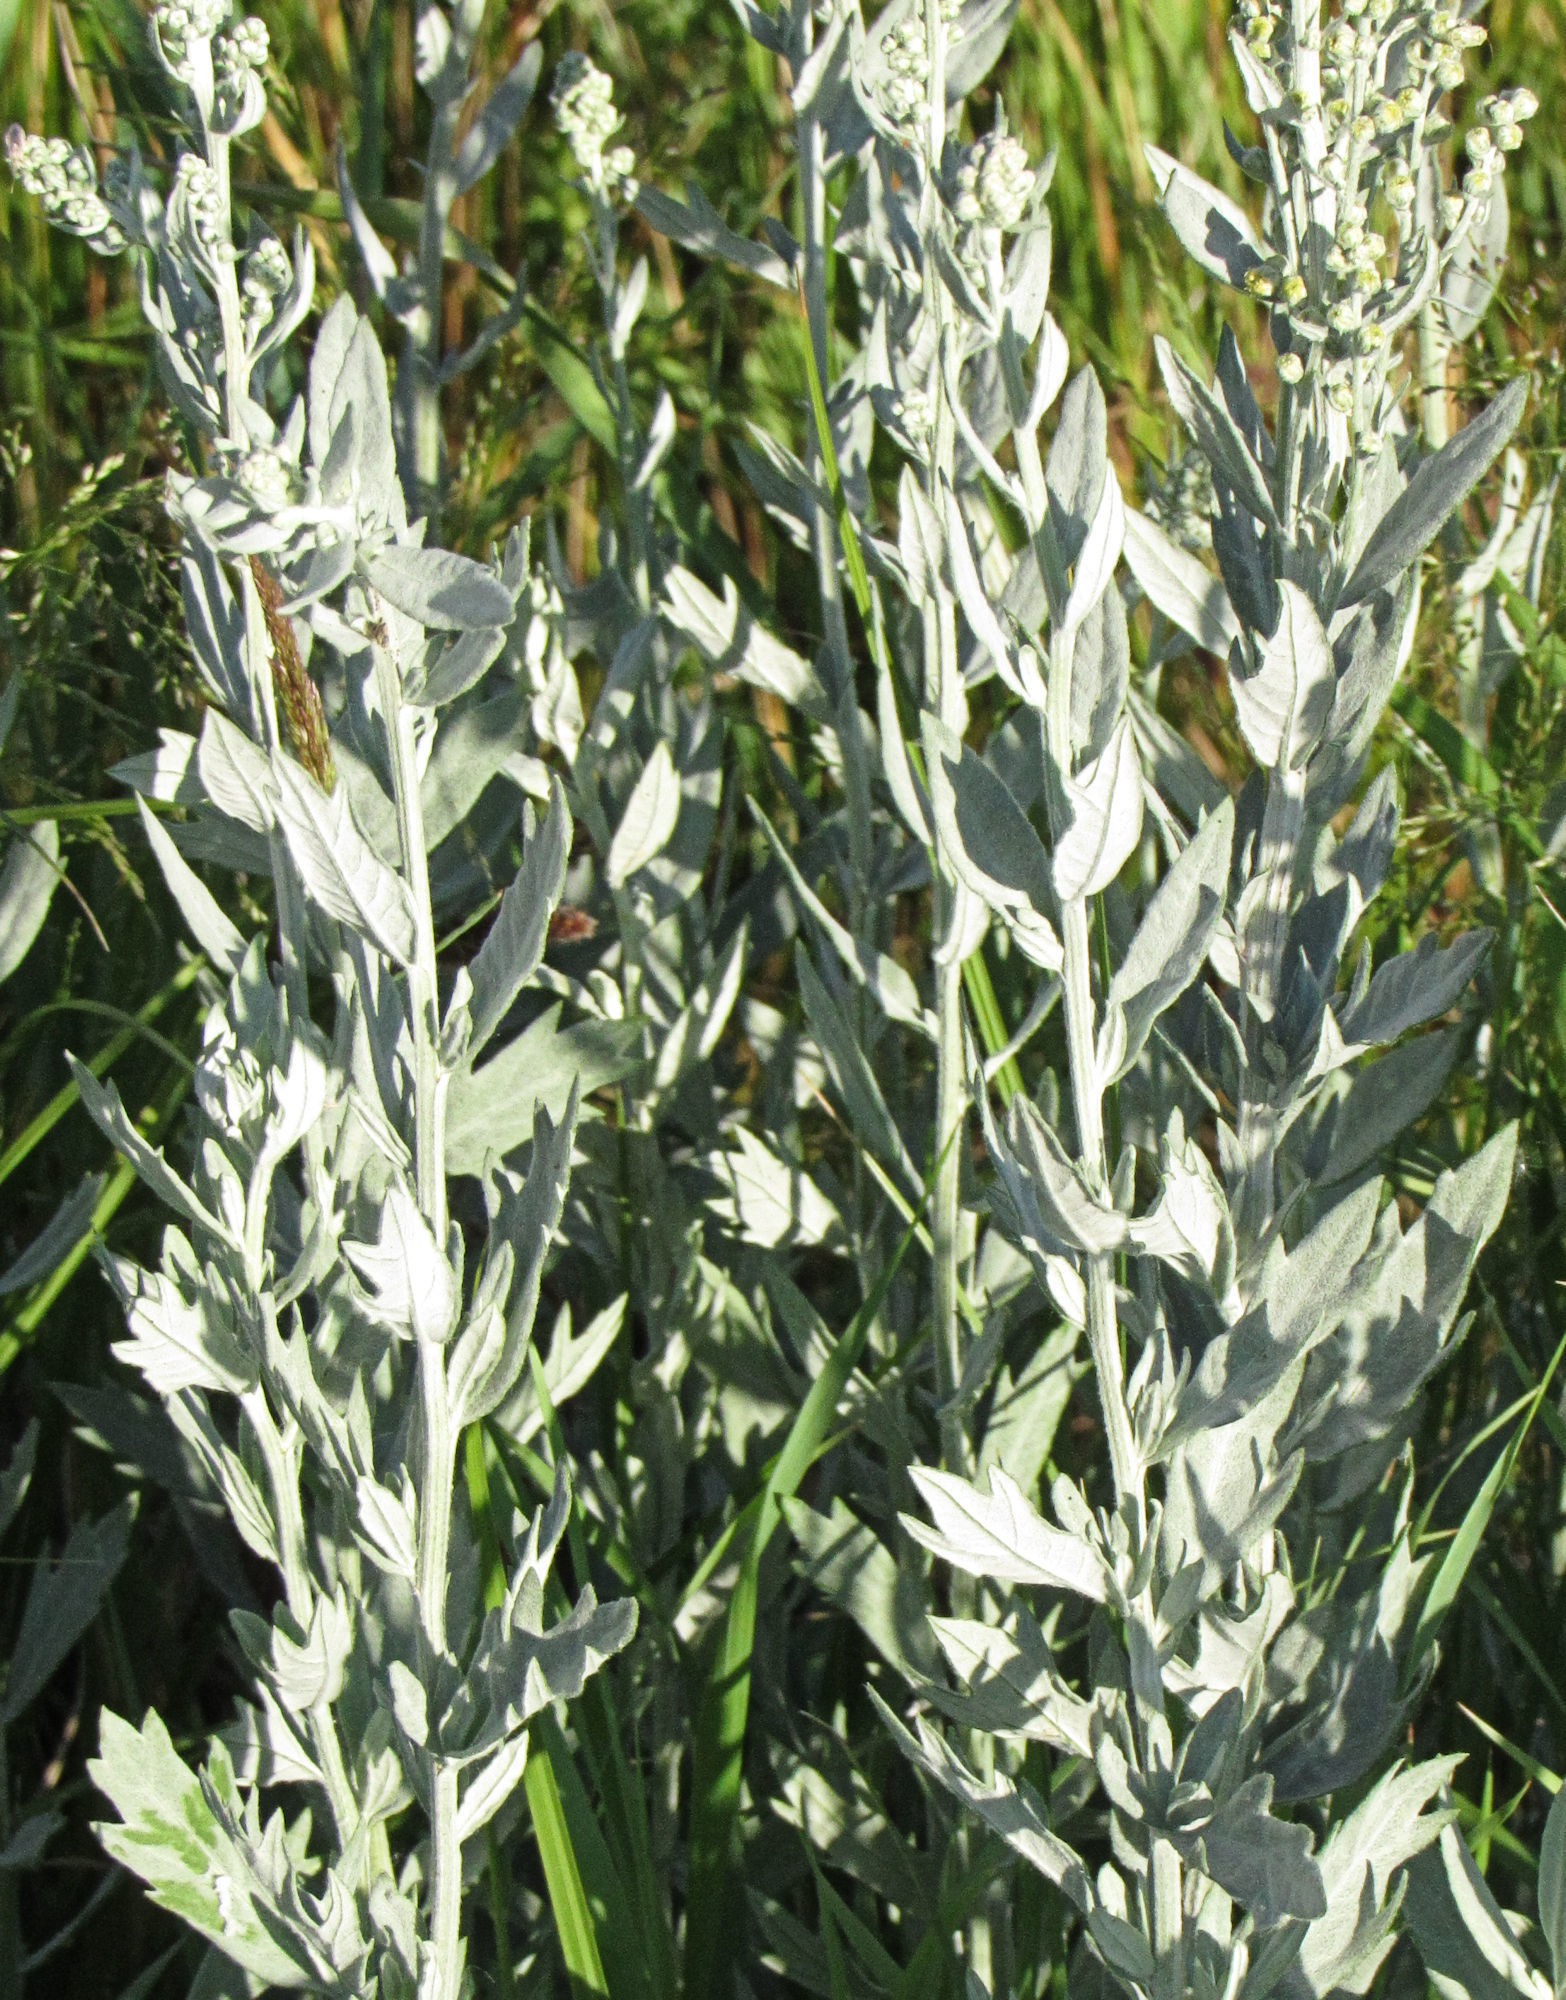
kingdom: Plantae
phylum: Tracheophyta
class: Magnoliopsida
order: Asterales
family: Asteraceae
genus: Artemisia
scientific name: Artemisia ludoviciana
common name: Western mugwort
